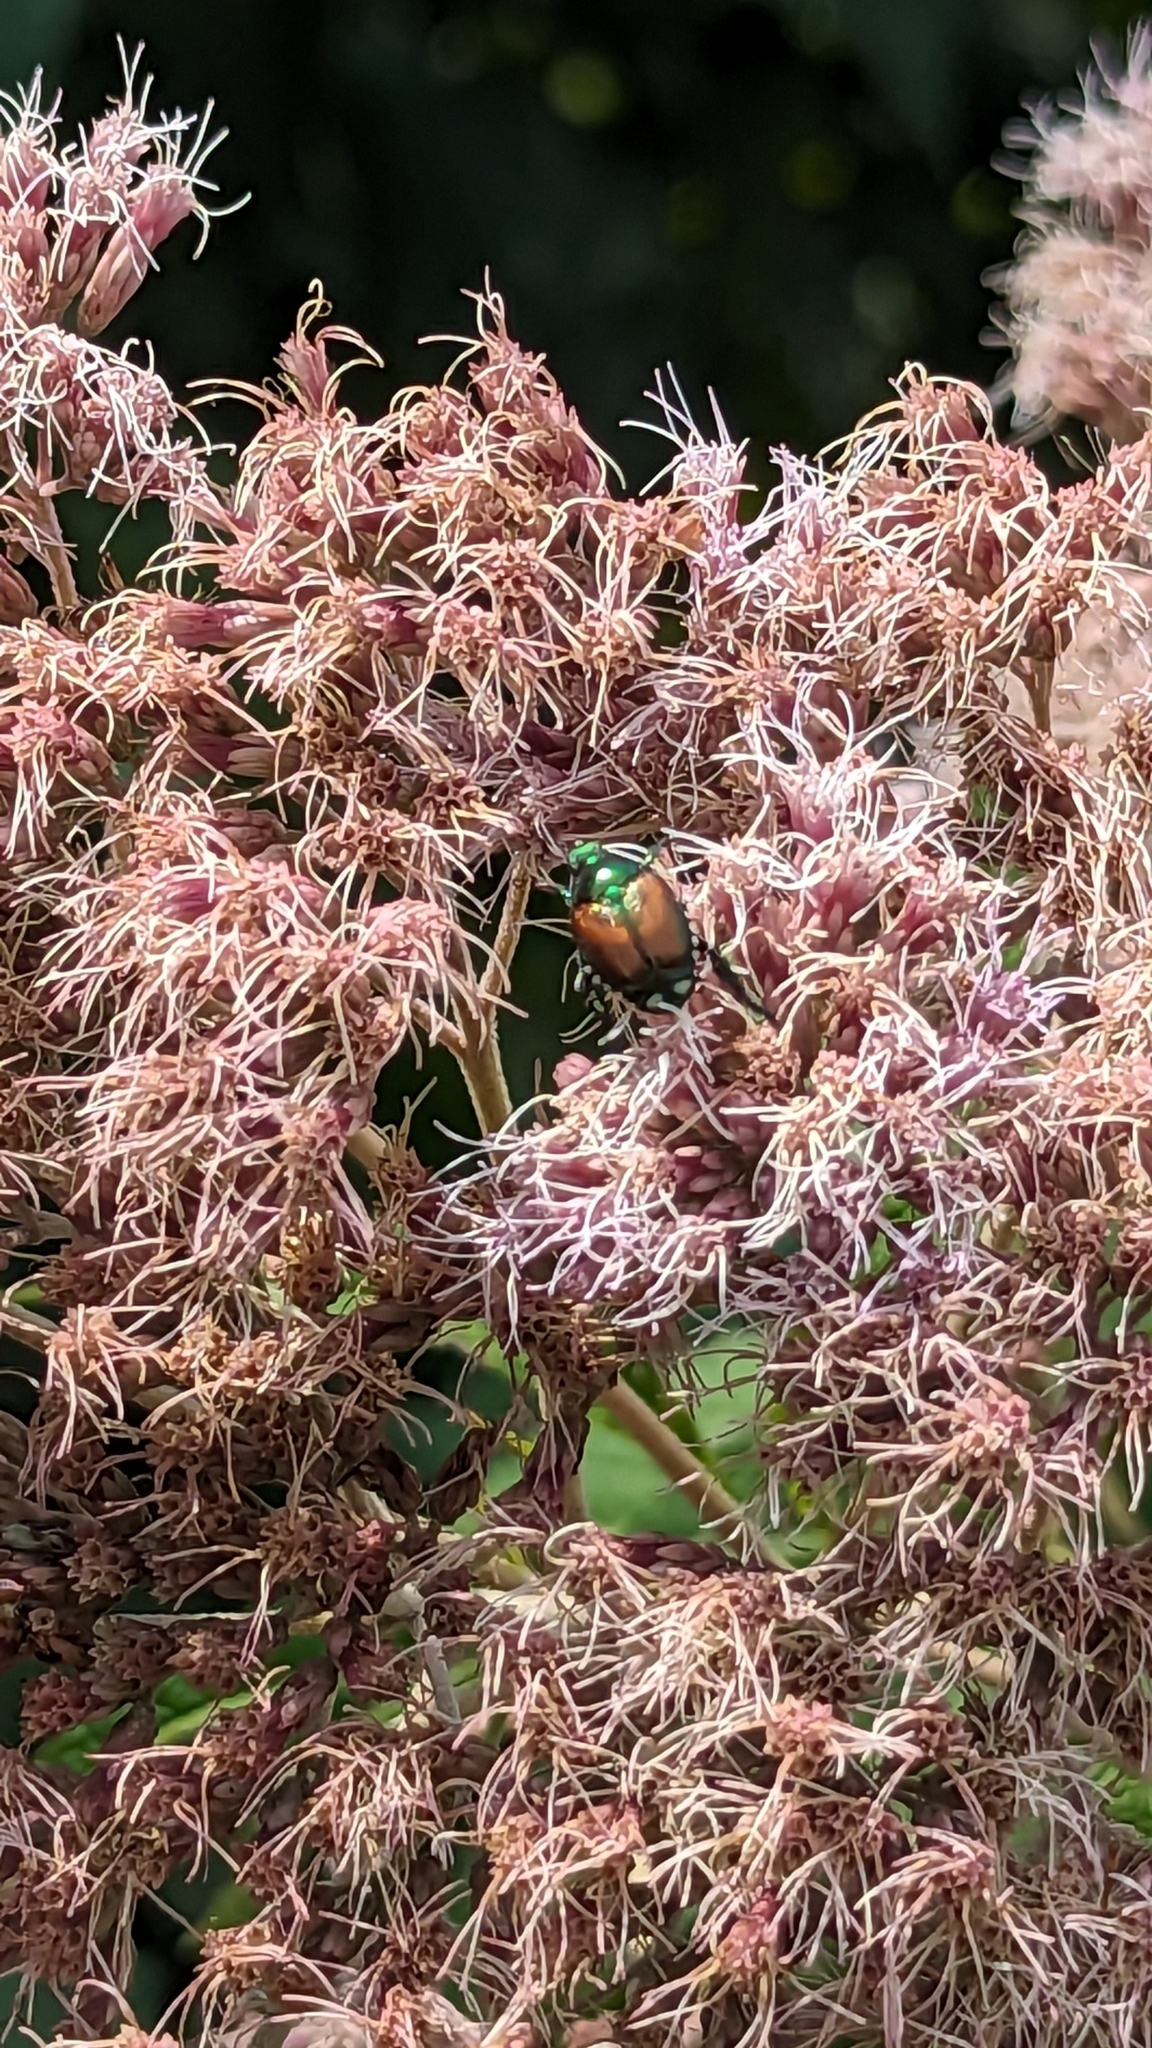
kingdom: Animalia
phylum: Arthropoda
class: Insecta
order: Coleoptera
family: Scarabaeidae
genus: Popillia
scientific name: Popillia japonica
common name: Japanese beetle
